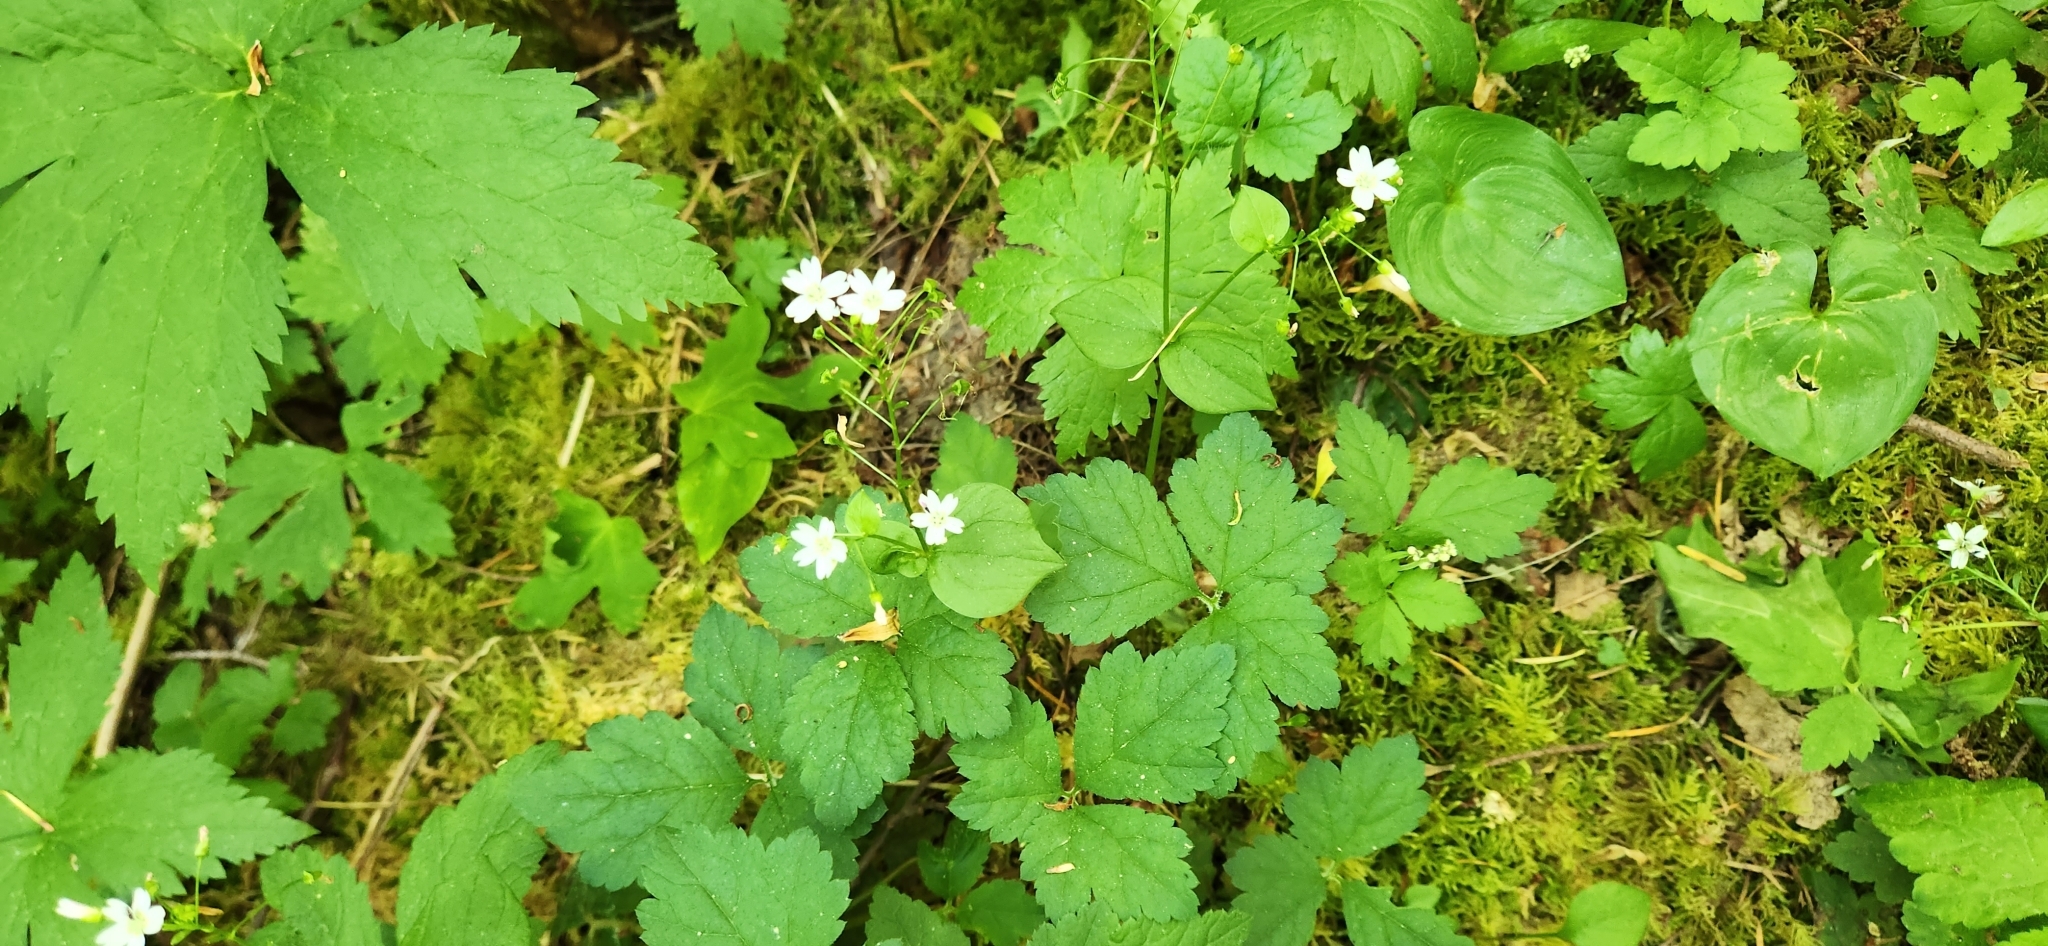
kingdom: Plantae
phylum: Tracheophyta
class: Magnoliopsida
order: Caryophyllales
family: Montiaceae
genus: Claytonia
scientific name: Claytonia sibirica
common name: Pink purslane
